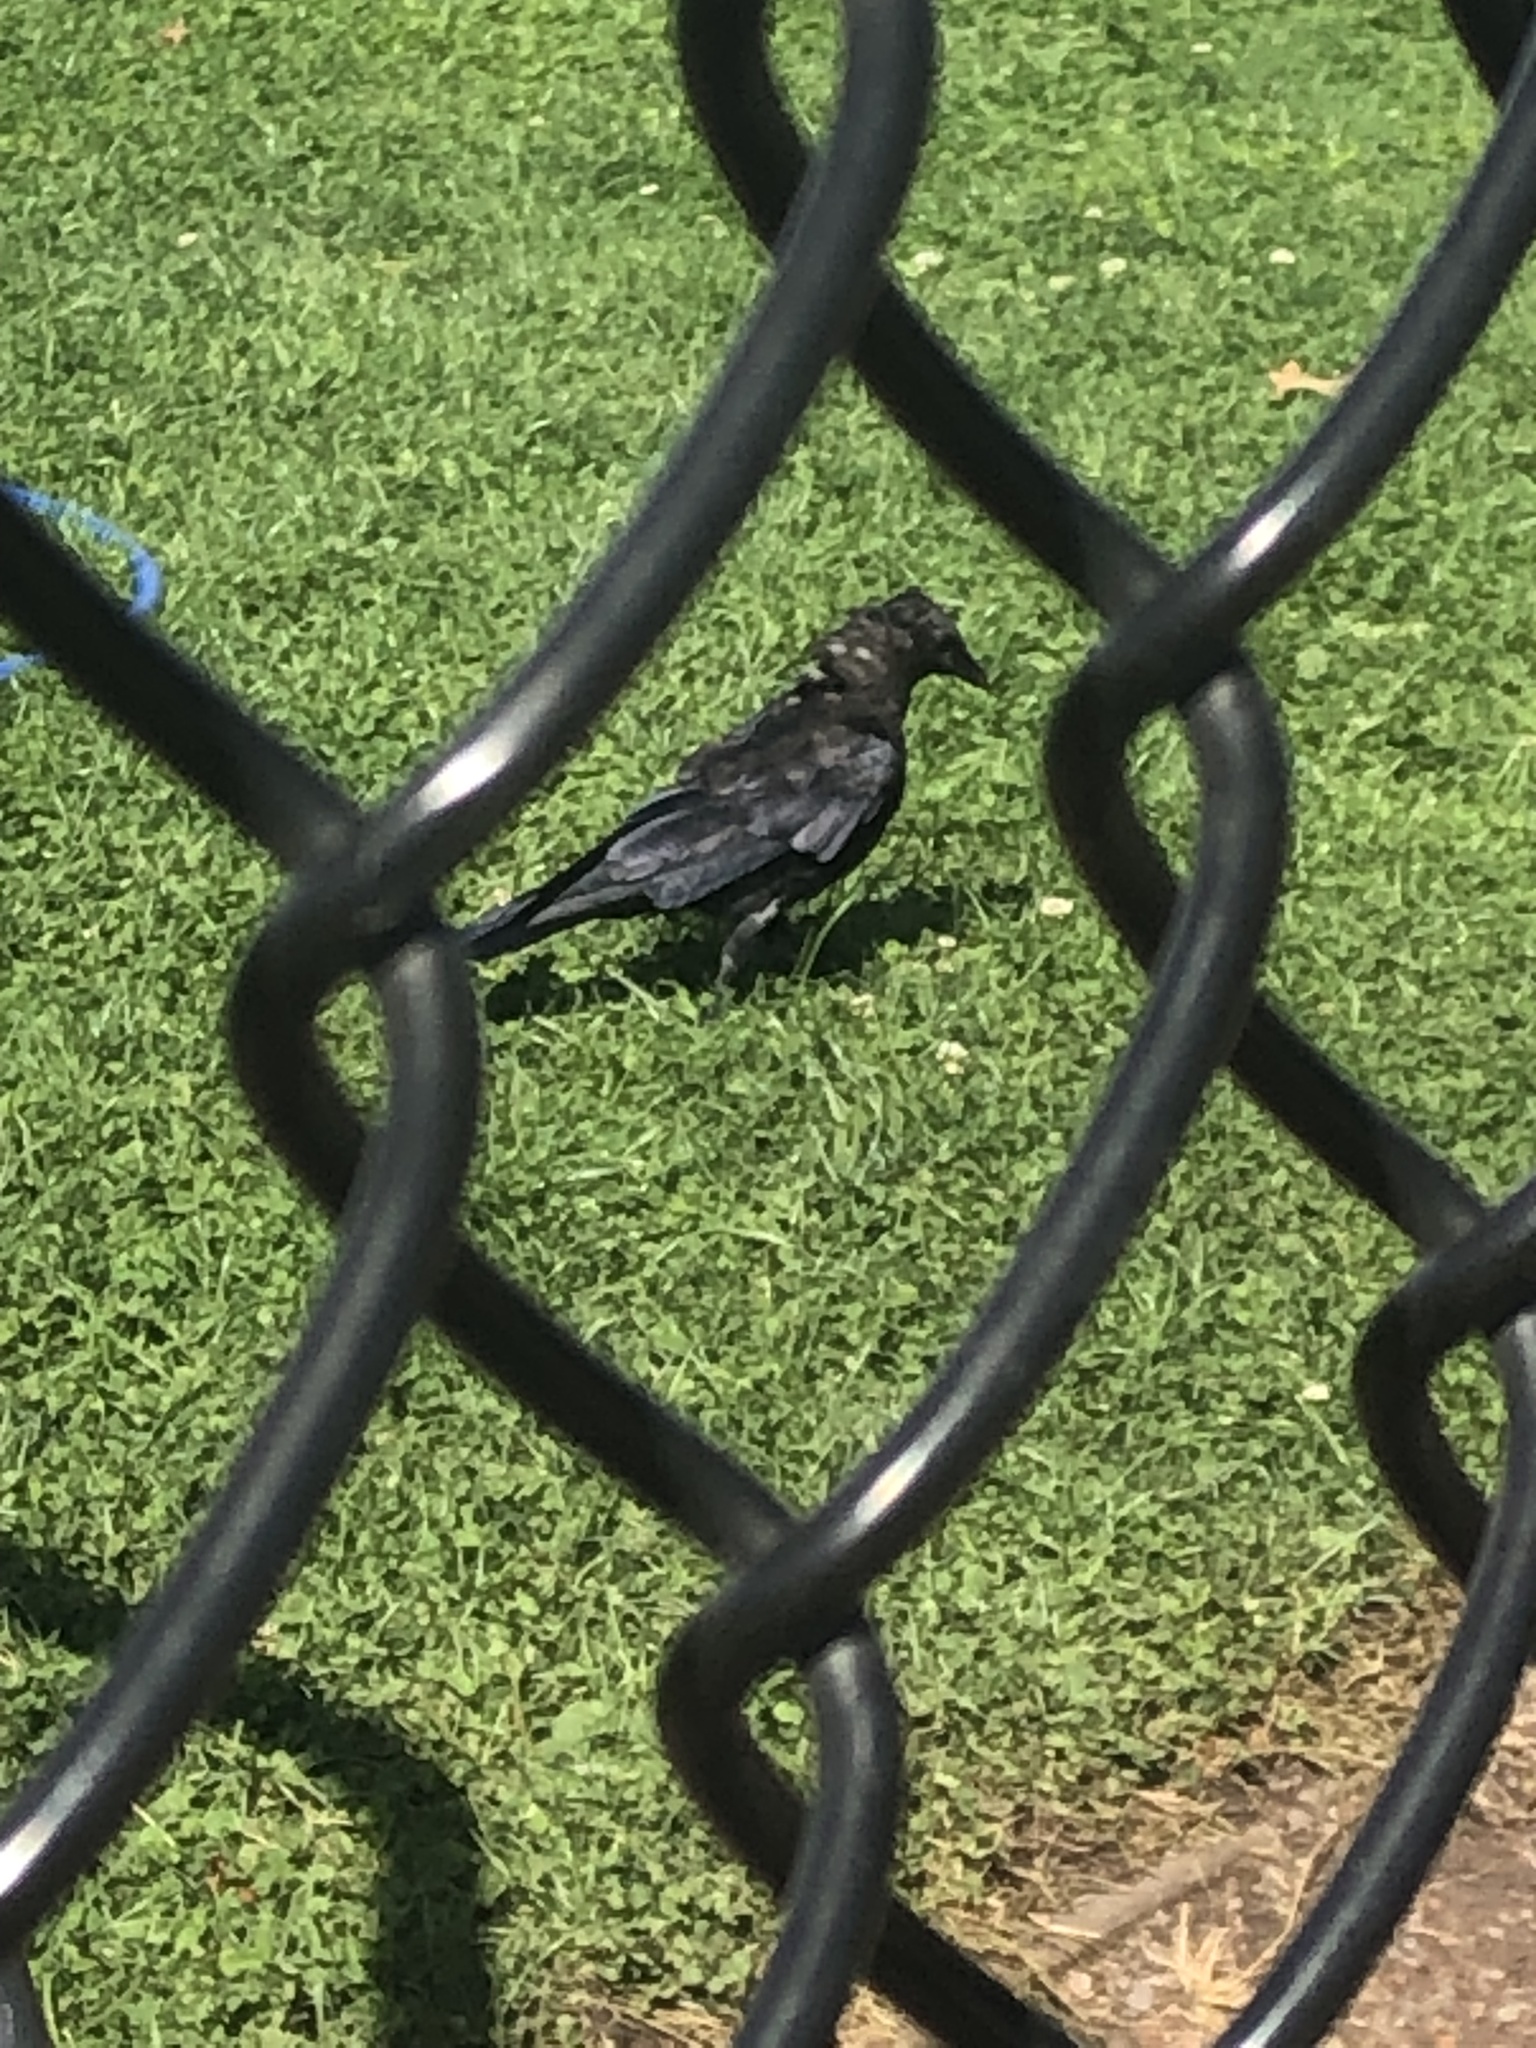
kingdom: Animalia
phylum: Chordata
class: Aves
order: Passeriformes
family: Corvidae
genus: Corvus
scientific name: Corvus brachyrhynchos
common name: American crow
